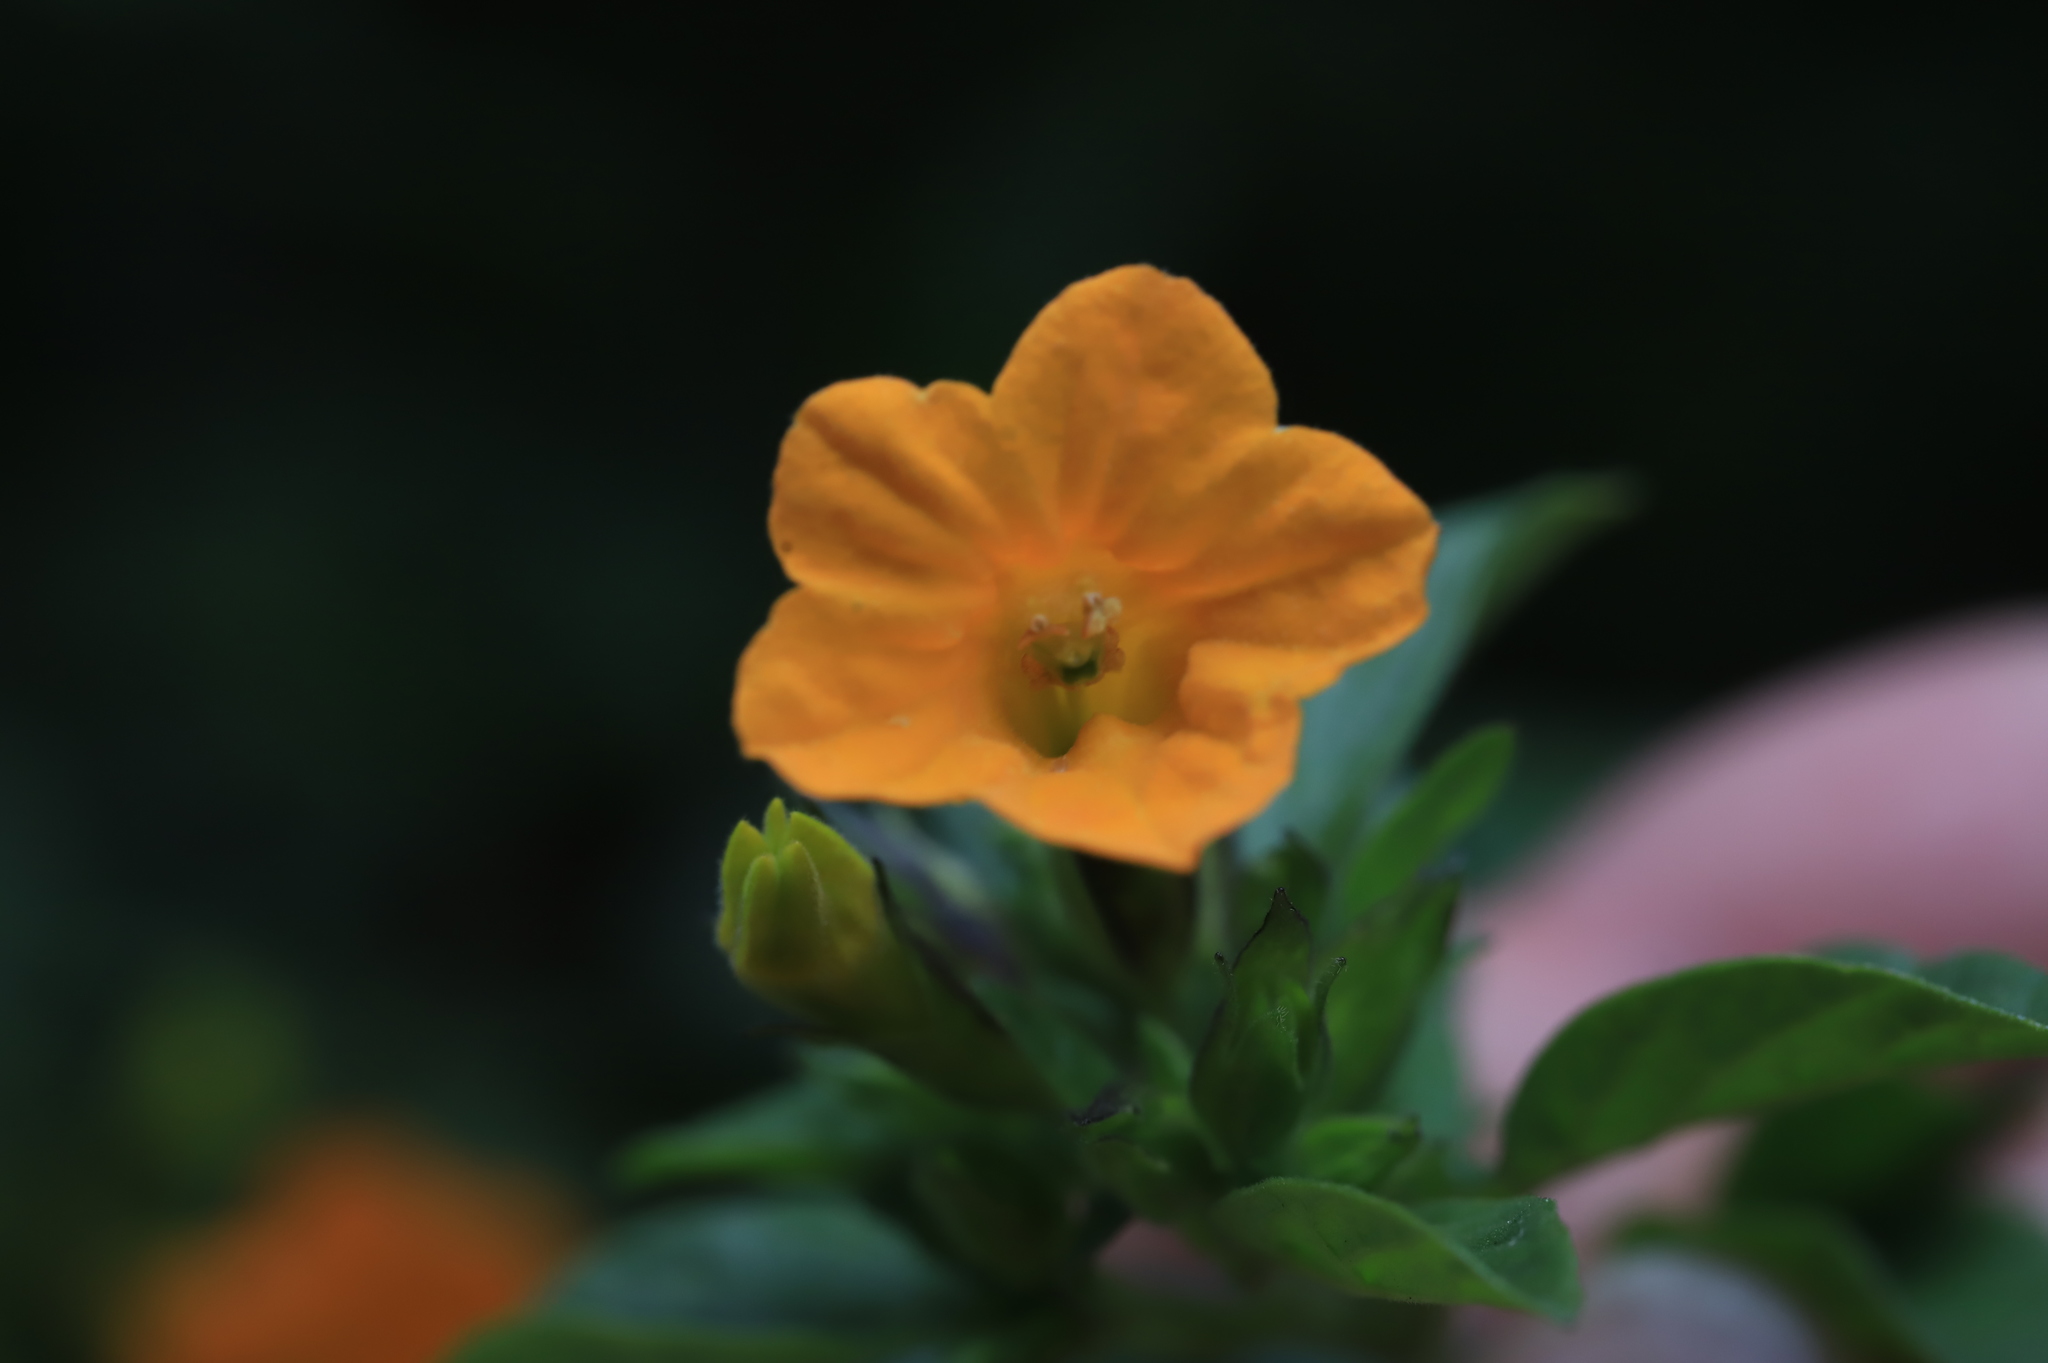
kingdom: Plantae
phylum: Tracheophyta
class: Magnoliopsida
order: Solanales
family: Solanaceae
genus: Streptosolen
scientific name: Streptosolen jamesonii
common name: Marmalade bush
